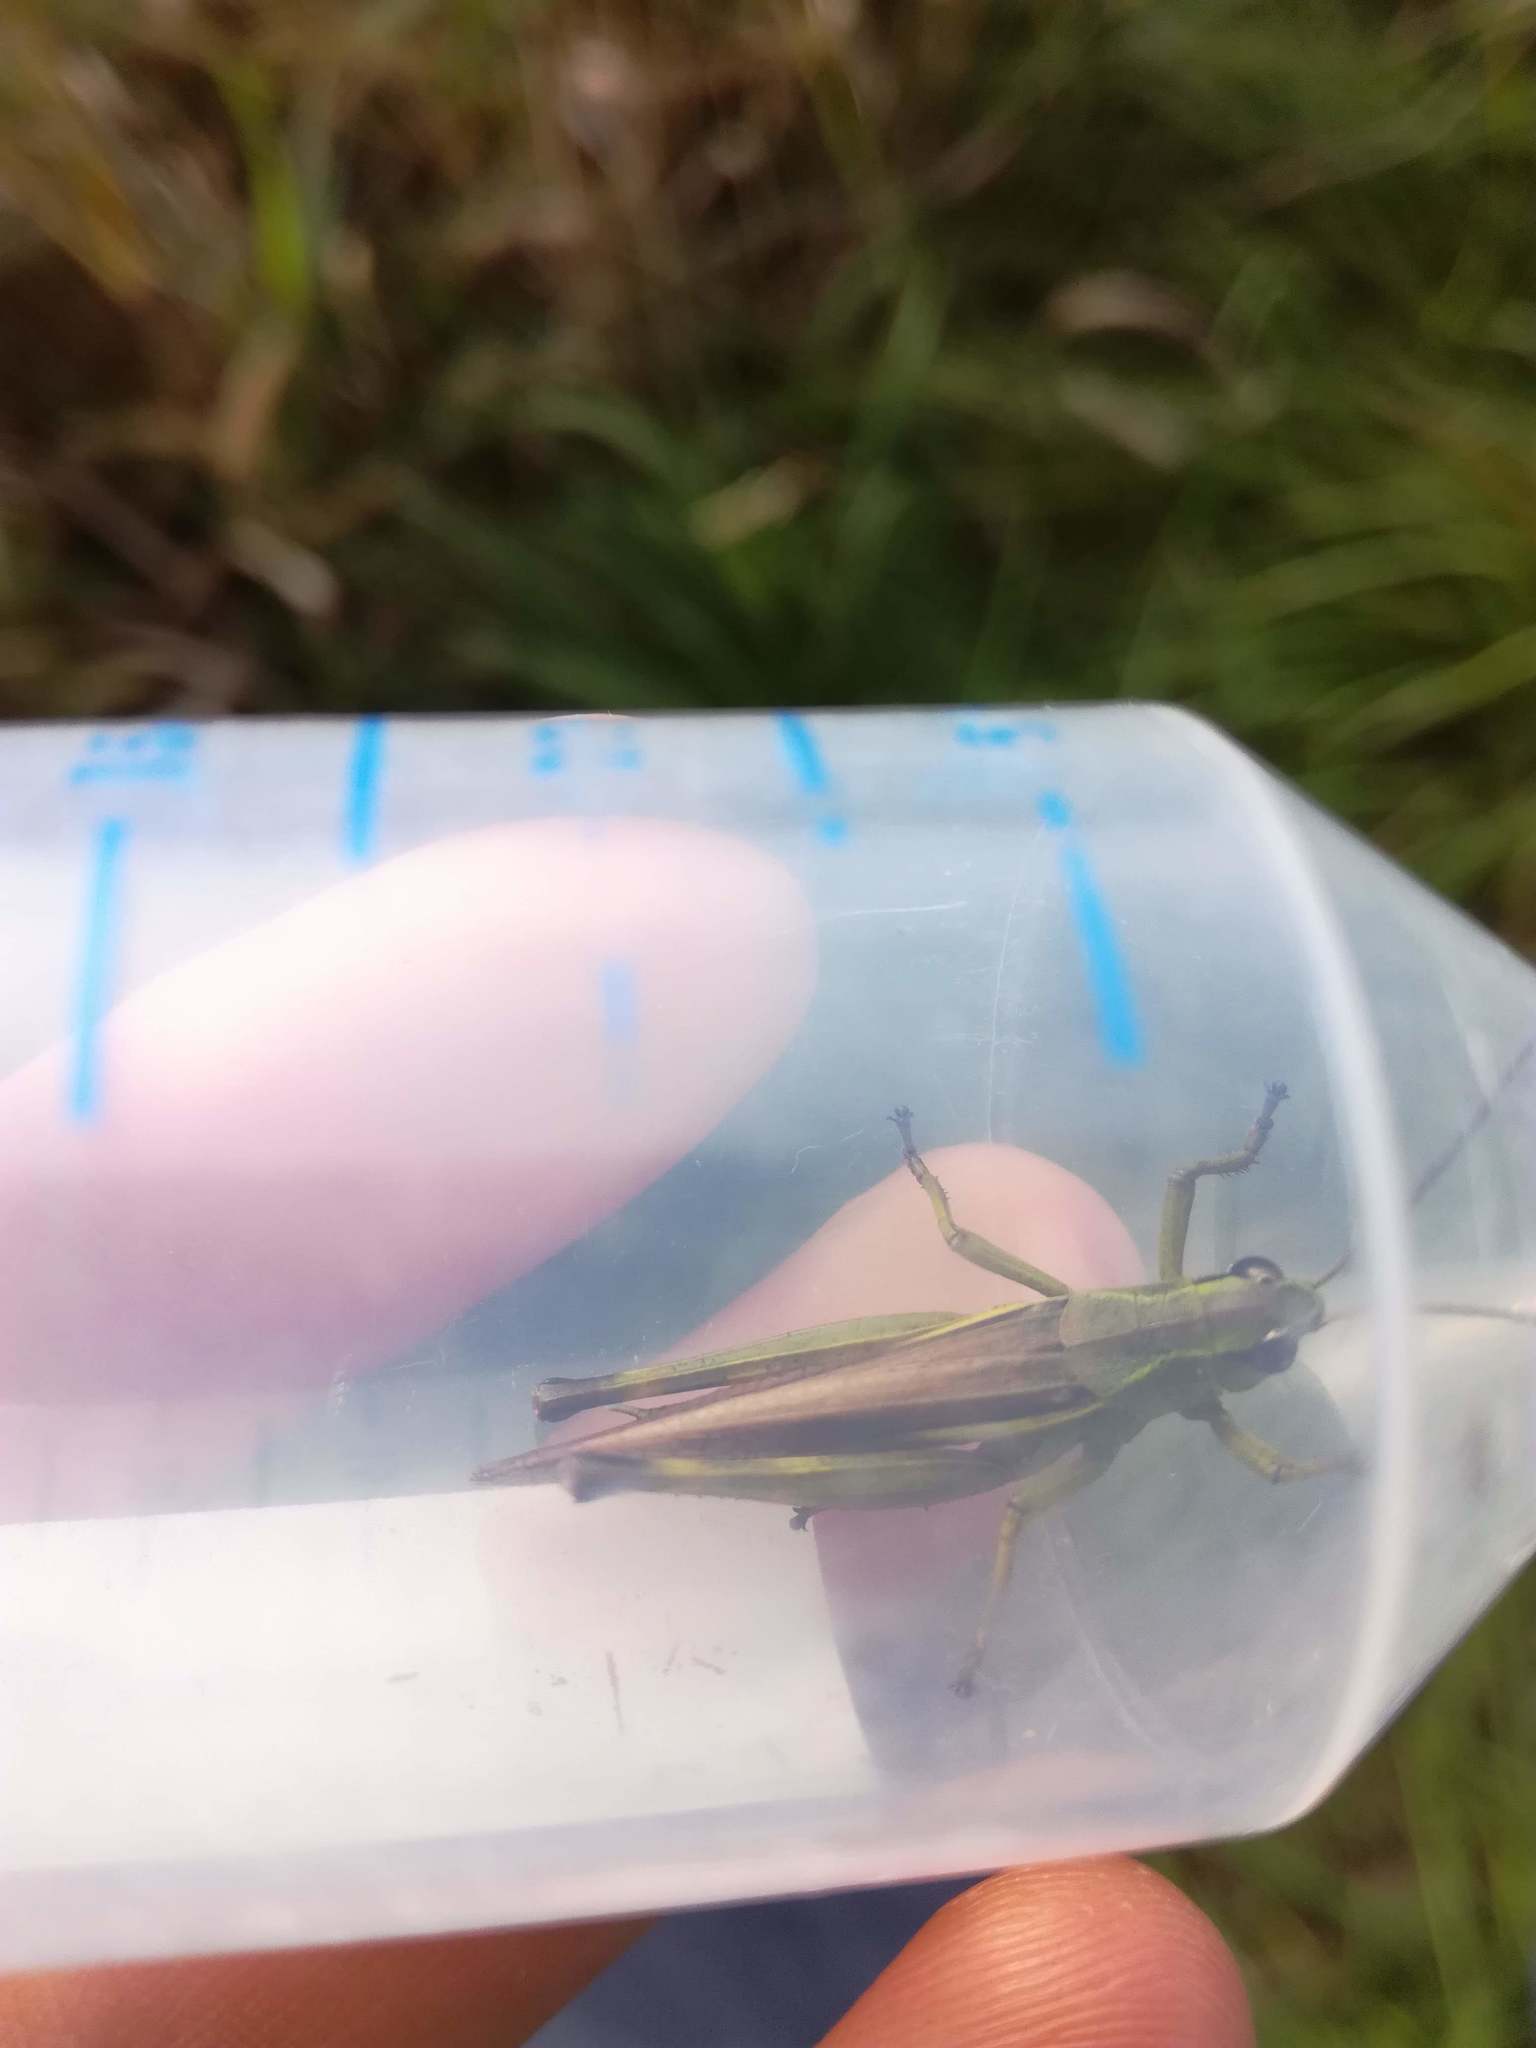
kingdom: Animalia
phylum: Arthropoda
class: Insecta
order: Orthoptera
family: Acrididae
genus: Stethophyma
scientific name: Stethophyma grossum
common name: Large marsh grasshopper
